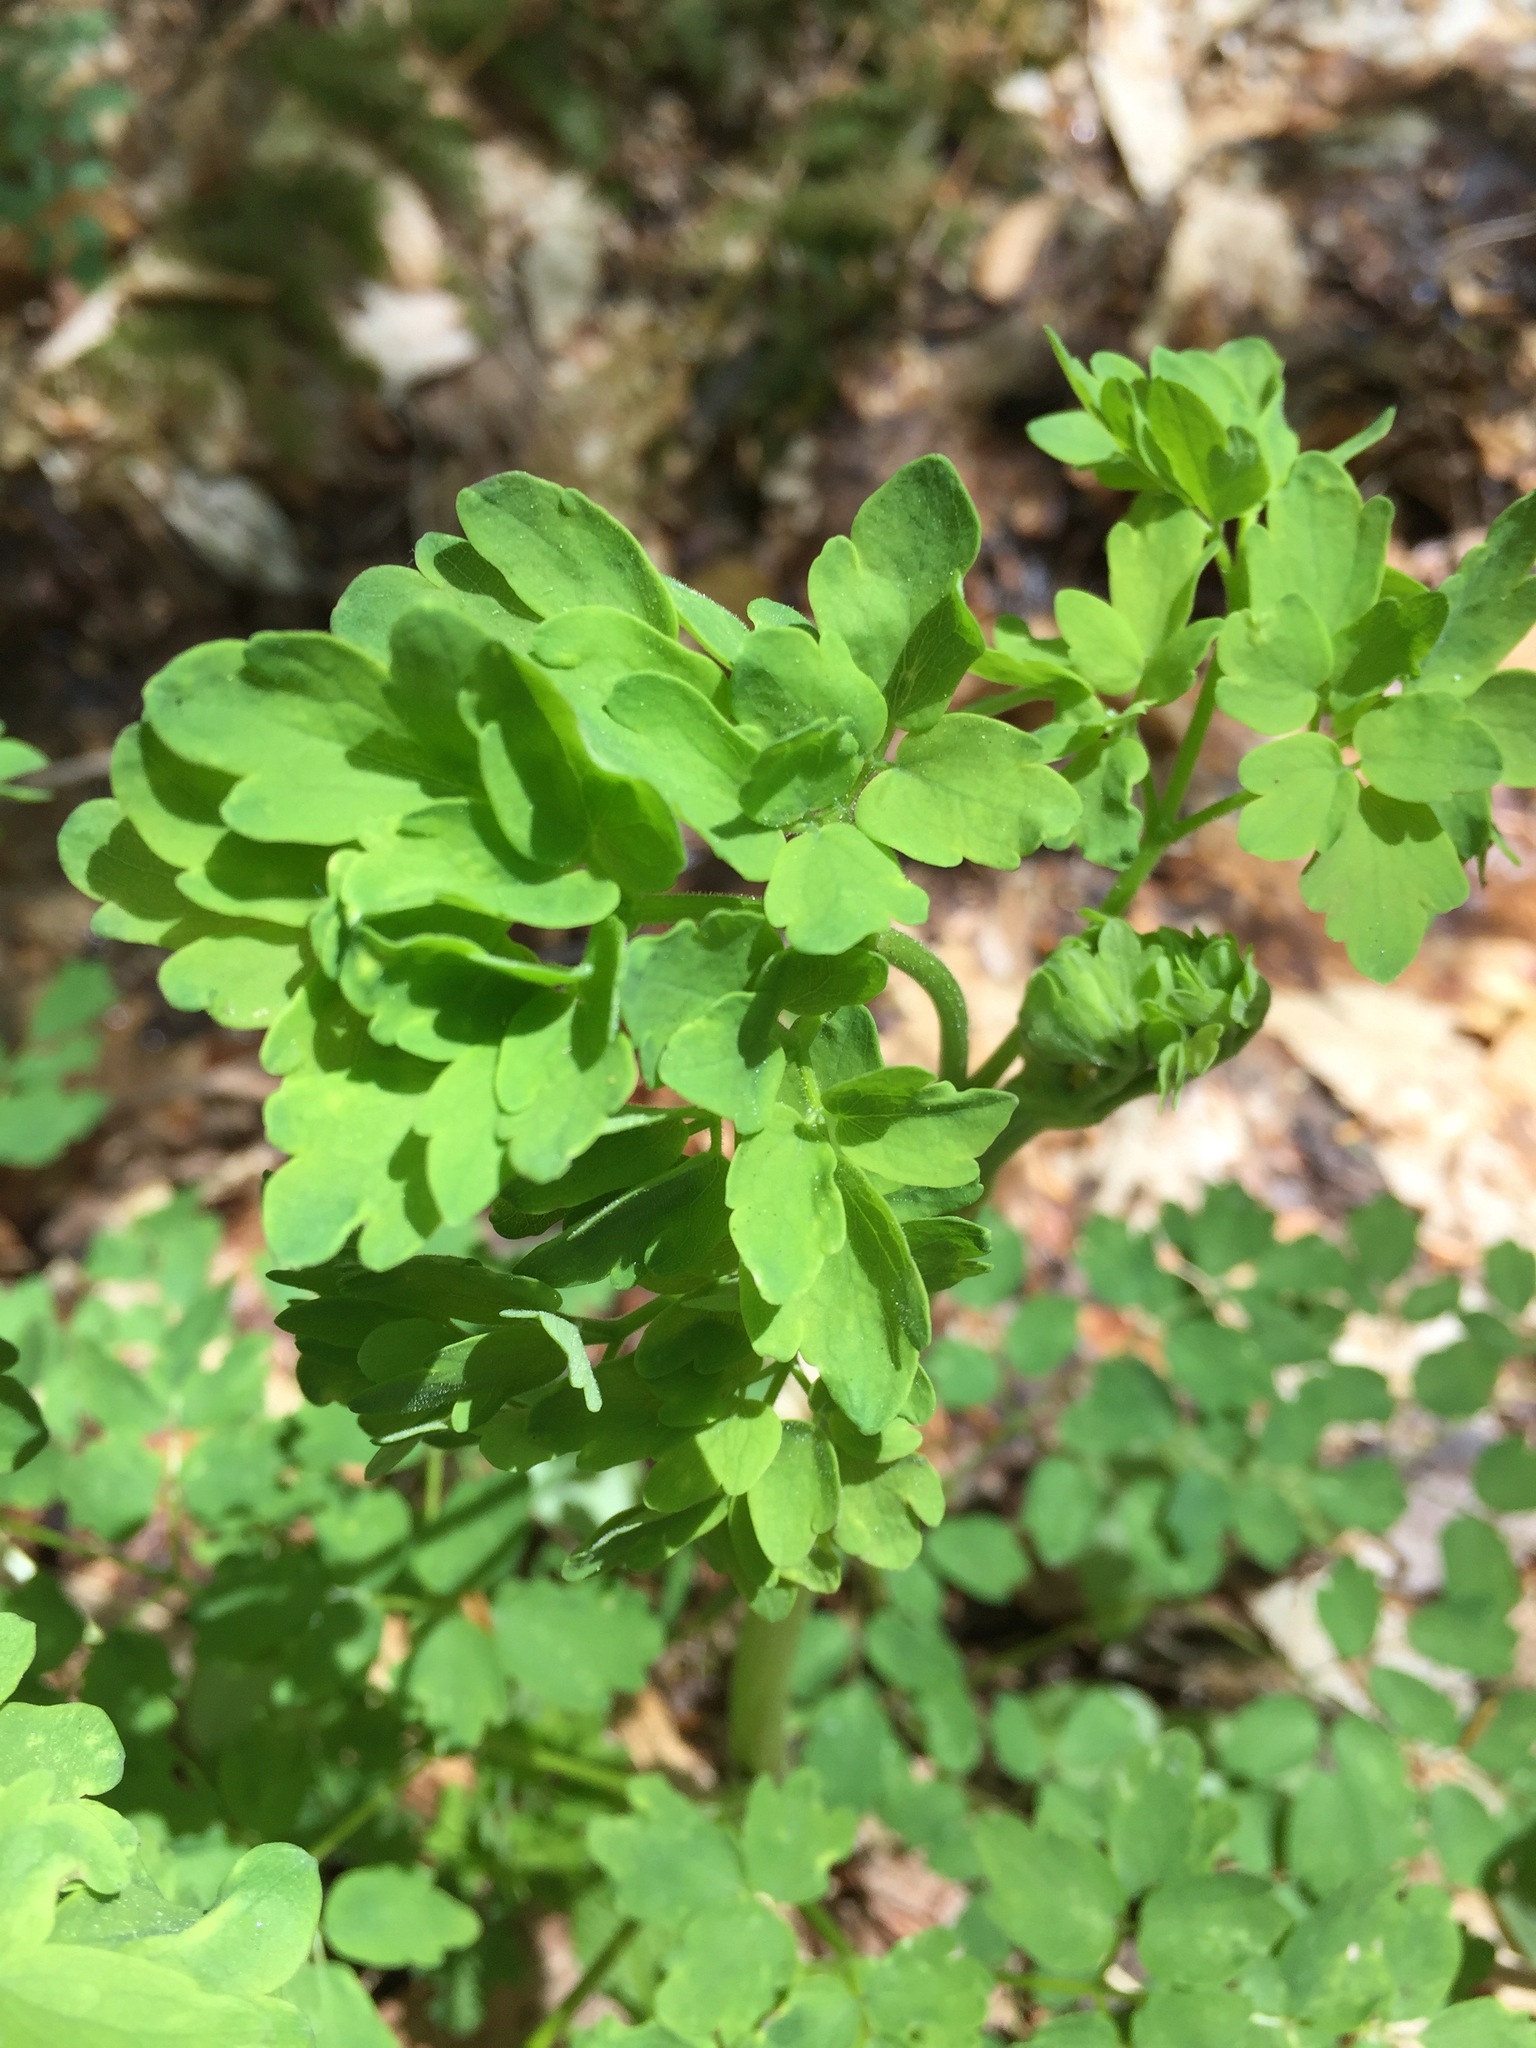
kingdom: Plantae
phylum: Tracheophyta
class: Magnoliopsida
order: Ranunculales
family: Ranunculaceae
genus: Thalictrum
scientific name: Thalictrum pubescens
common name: King-of-the-meadow
